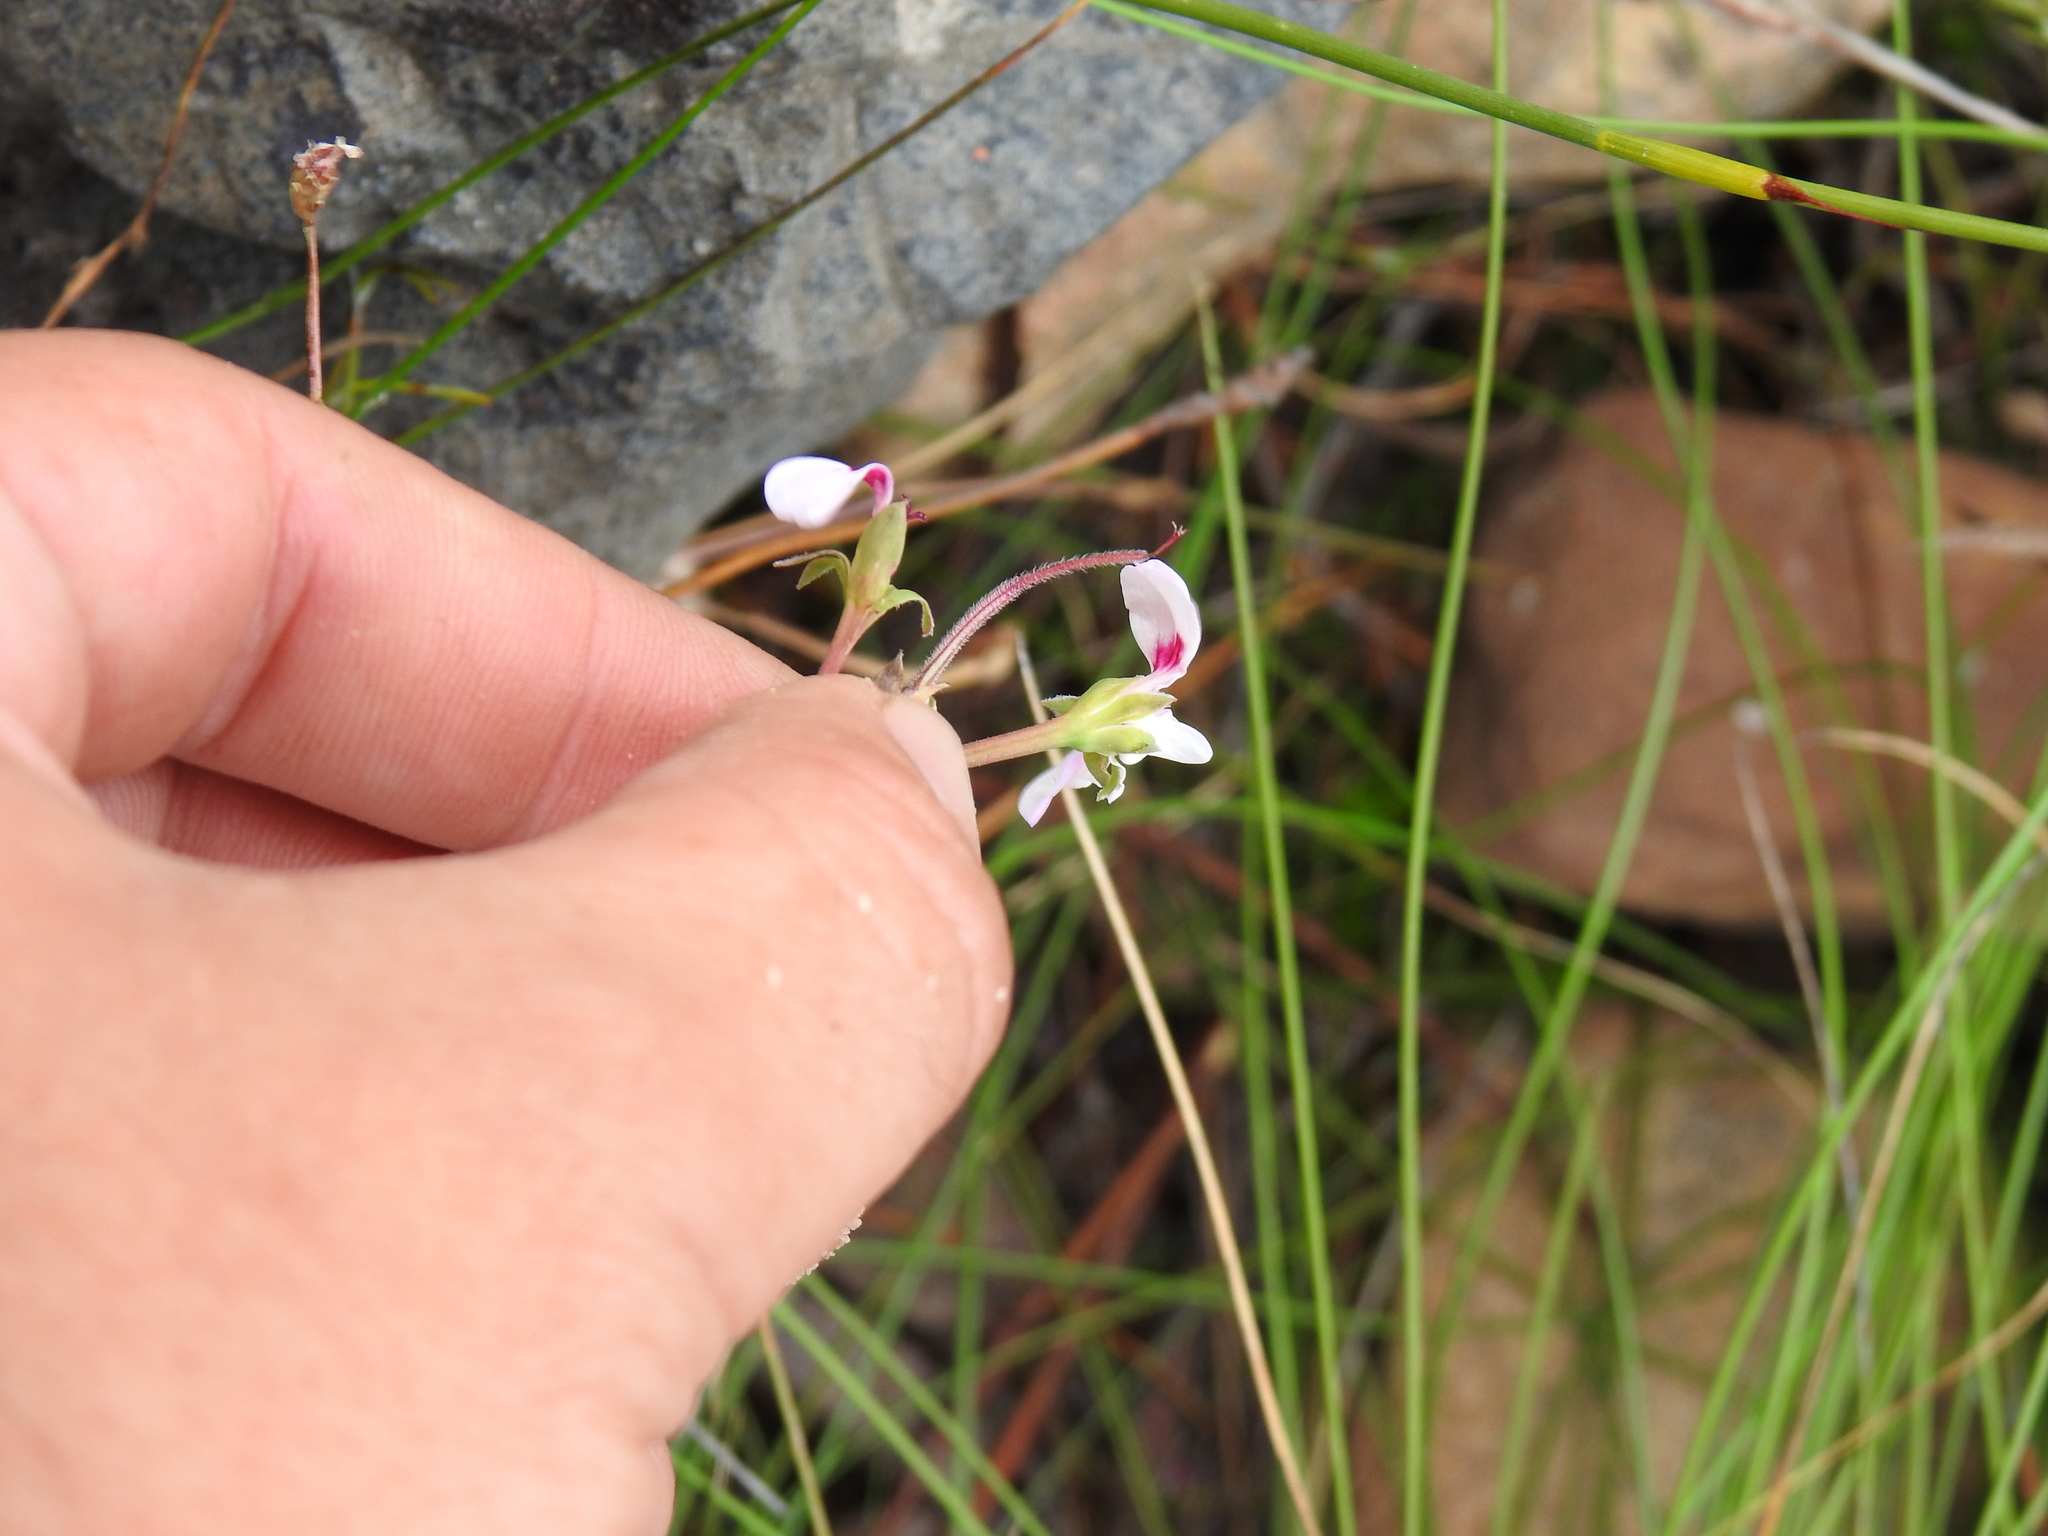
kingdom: Plantae
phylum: Tracheophyta
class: Magnoliopsida
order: Geraniales
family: Geraniaceae
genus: Pelargonium
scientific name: Pelargonium patulum
